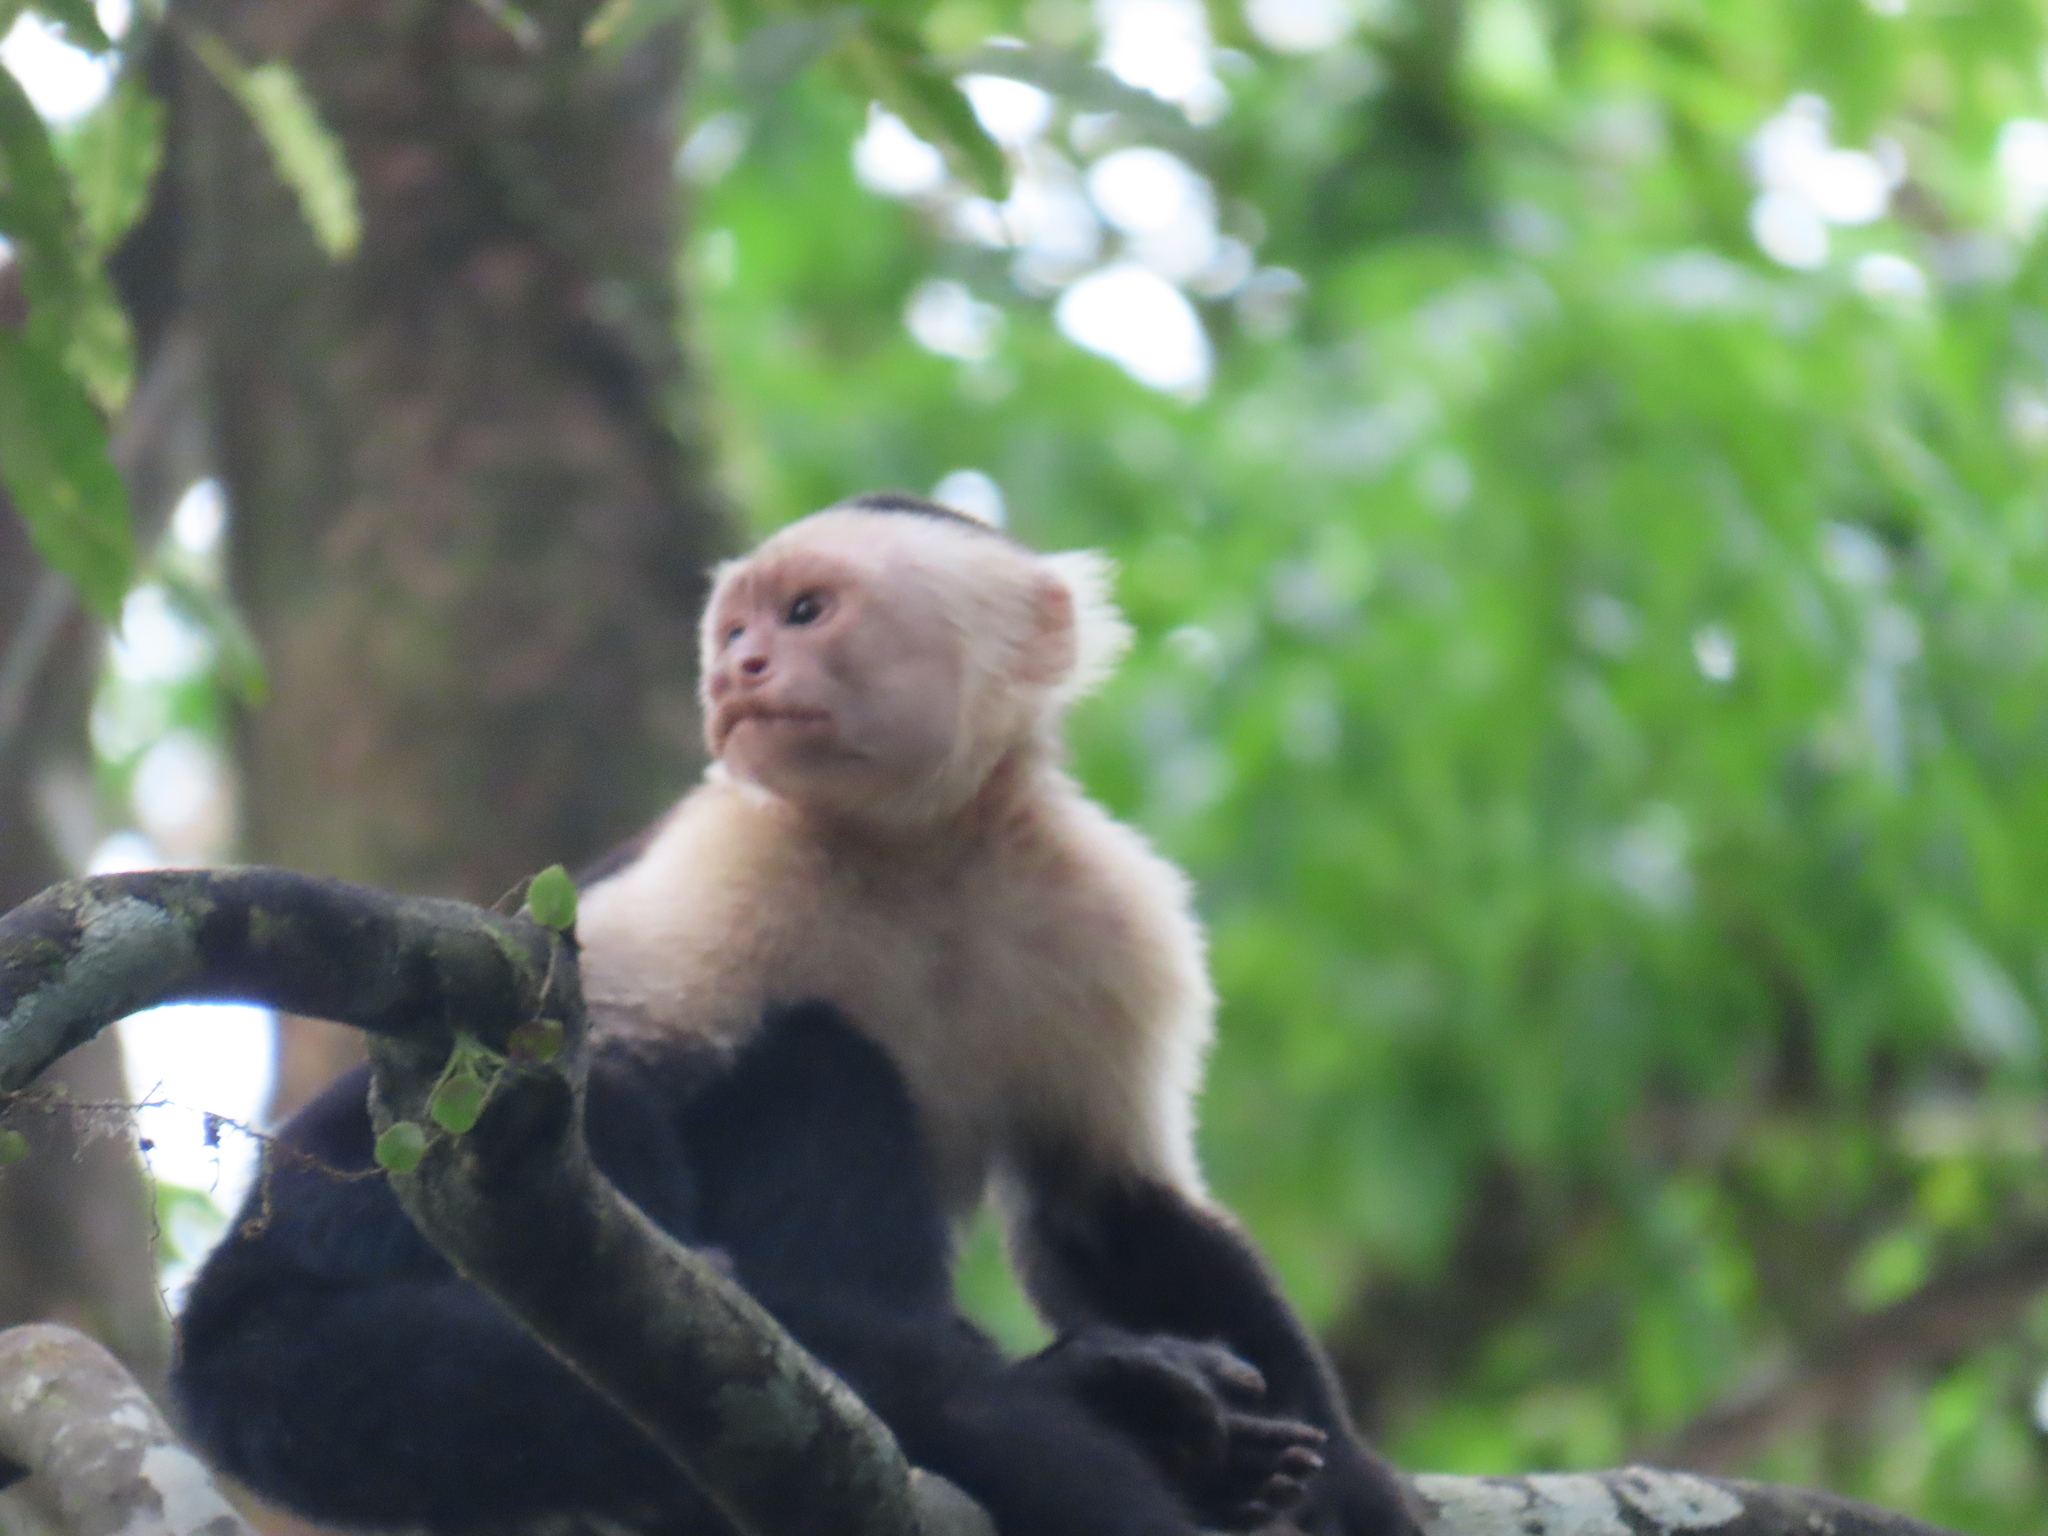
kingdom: Animalia
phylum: Chordata
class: Mammalia
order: Primates
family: Cebidae
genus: Cebus
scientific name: Cebus imitator
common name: Panamanian white-faced capuchin
